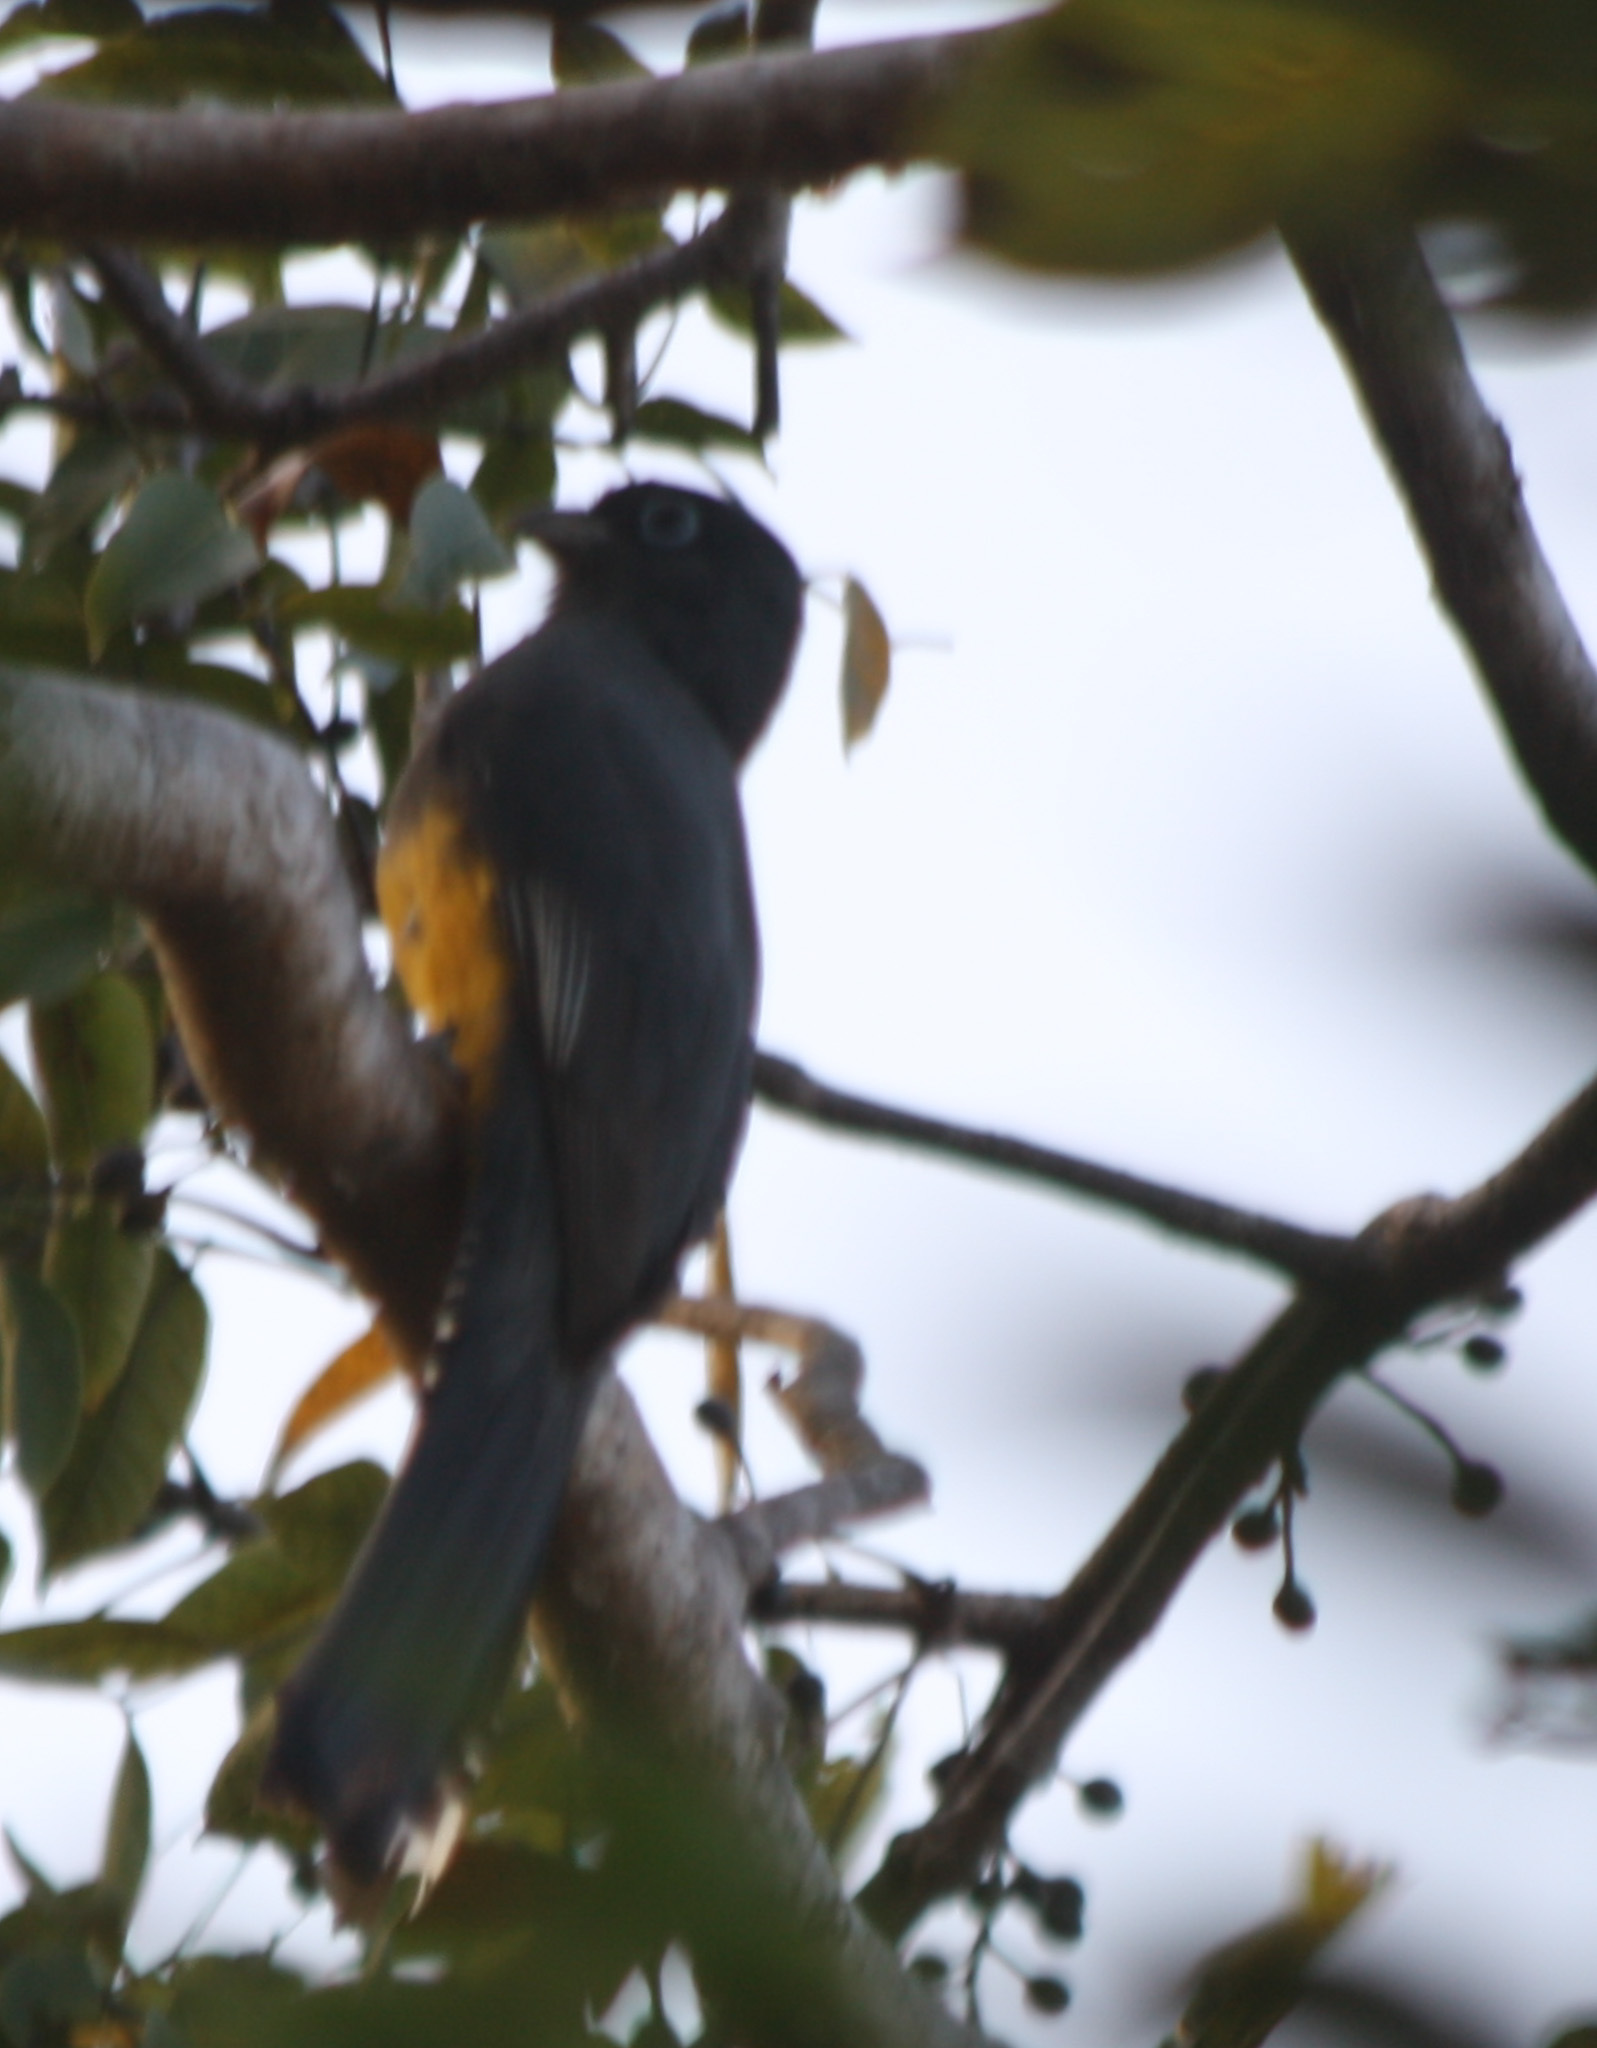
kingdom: Animalia
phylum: Chordata
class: Aves
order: Trogoniformes
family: Trogonidae
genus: Trogon
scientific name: Trogon melanocephalus
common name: Black-headed trogon
